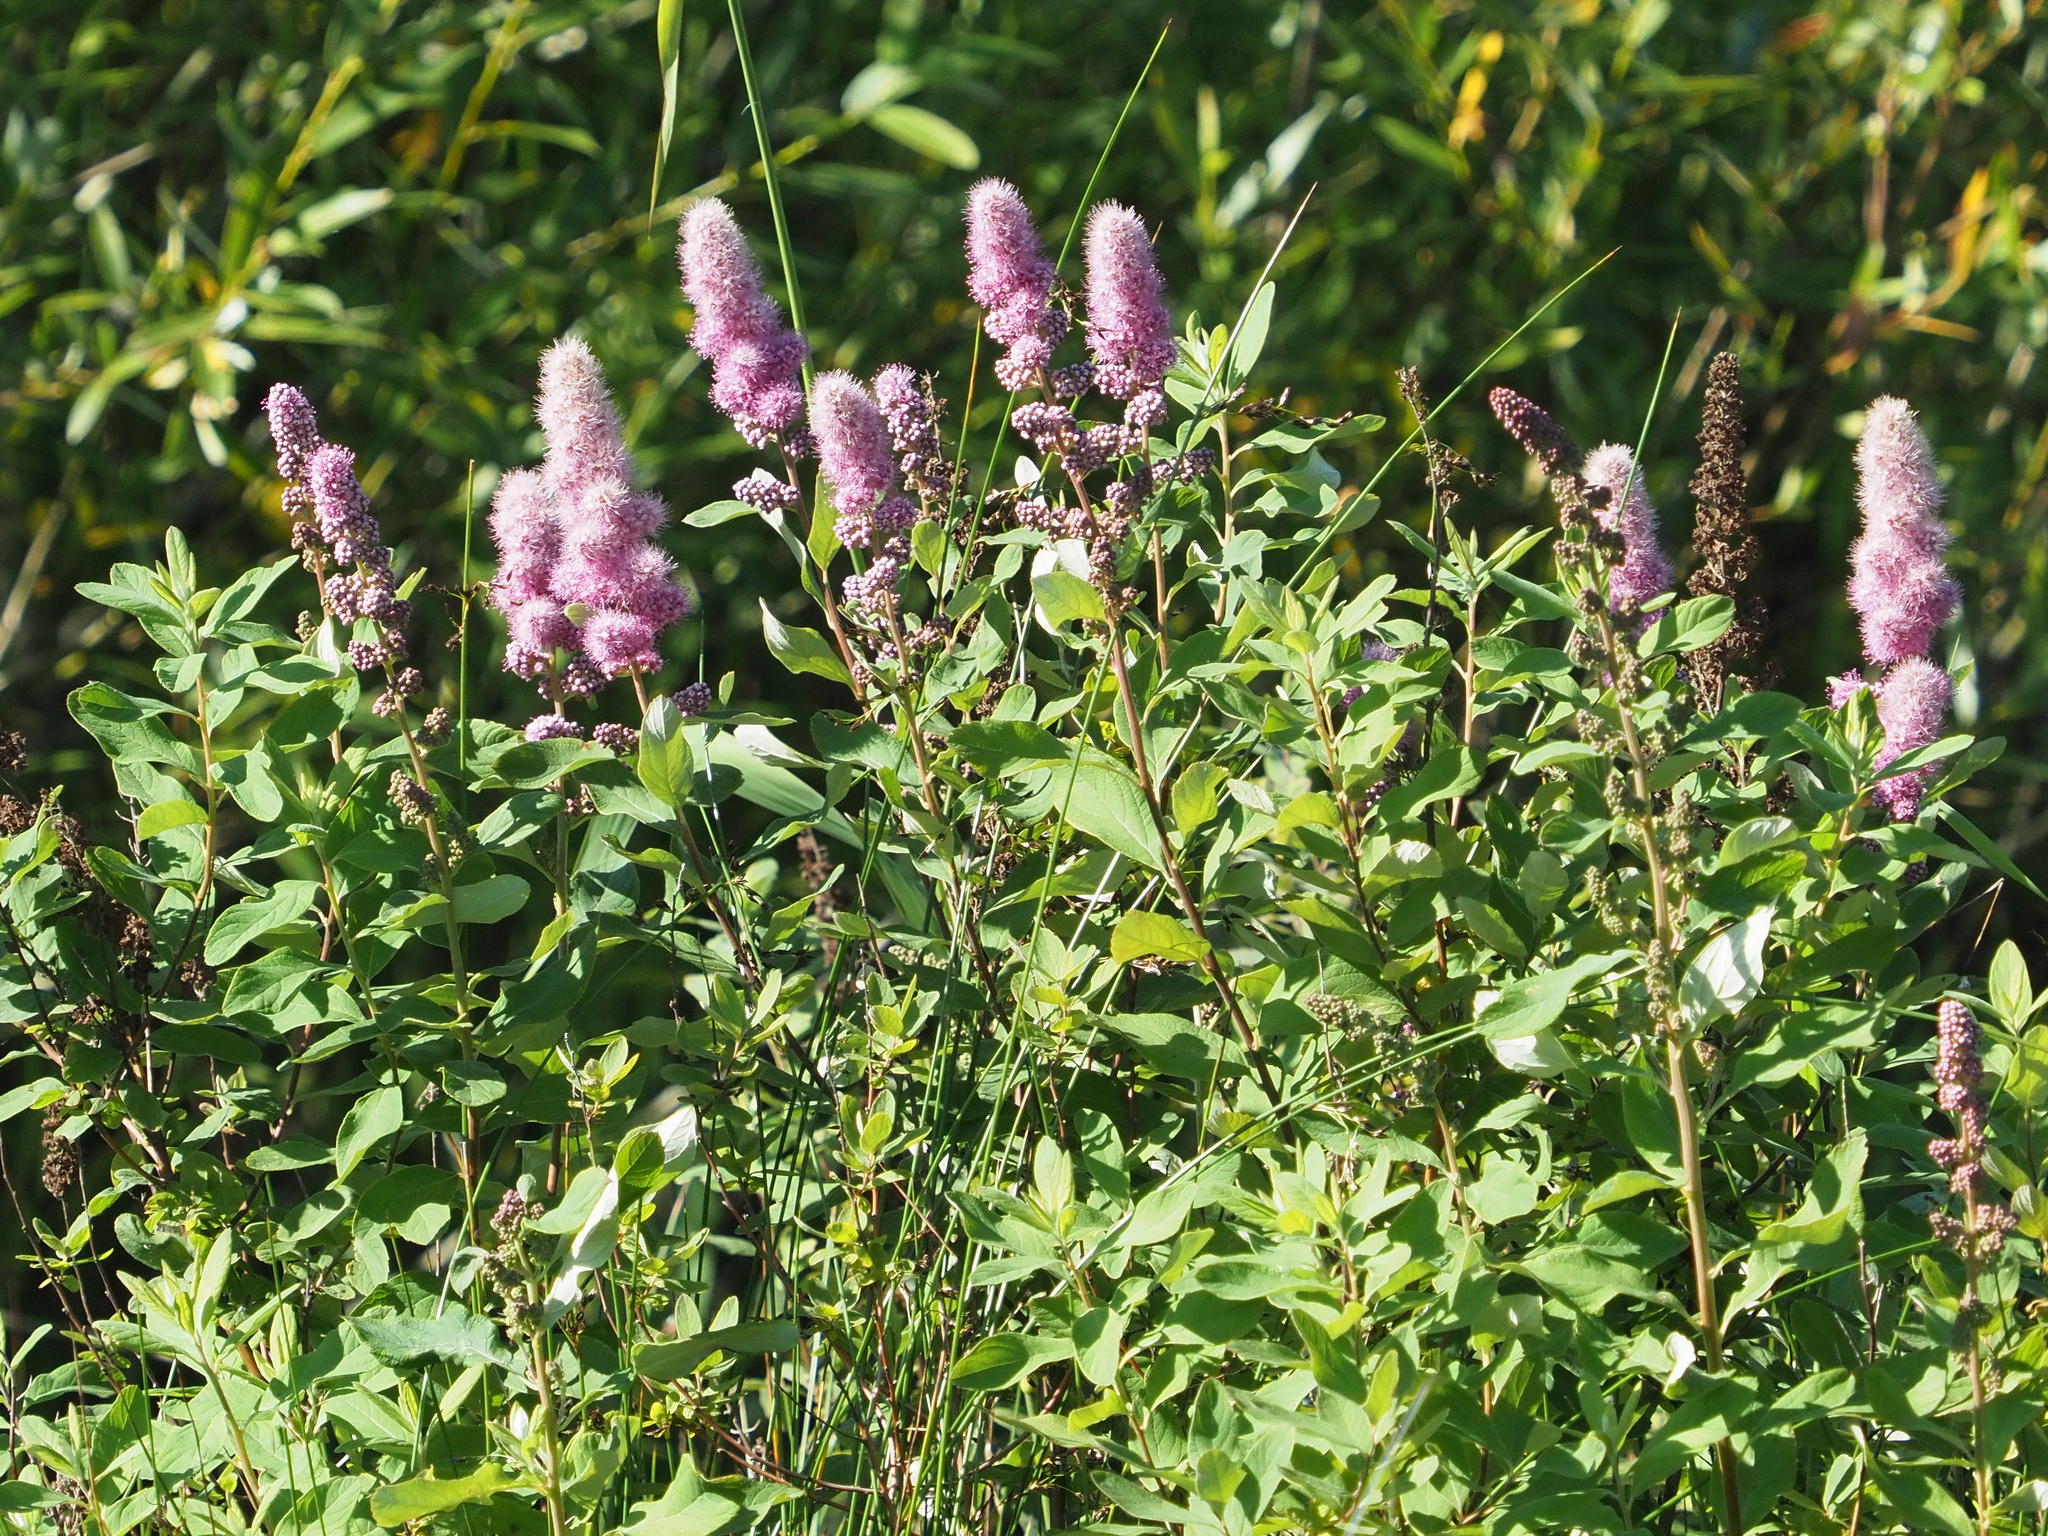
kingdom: Plantae
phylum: Tracheophyta
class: Magnoliopsida
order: Rosales
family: Rosaceae
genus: Spiraea
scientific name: Spiraea douglasii
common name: Steeplebush
